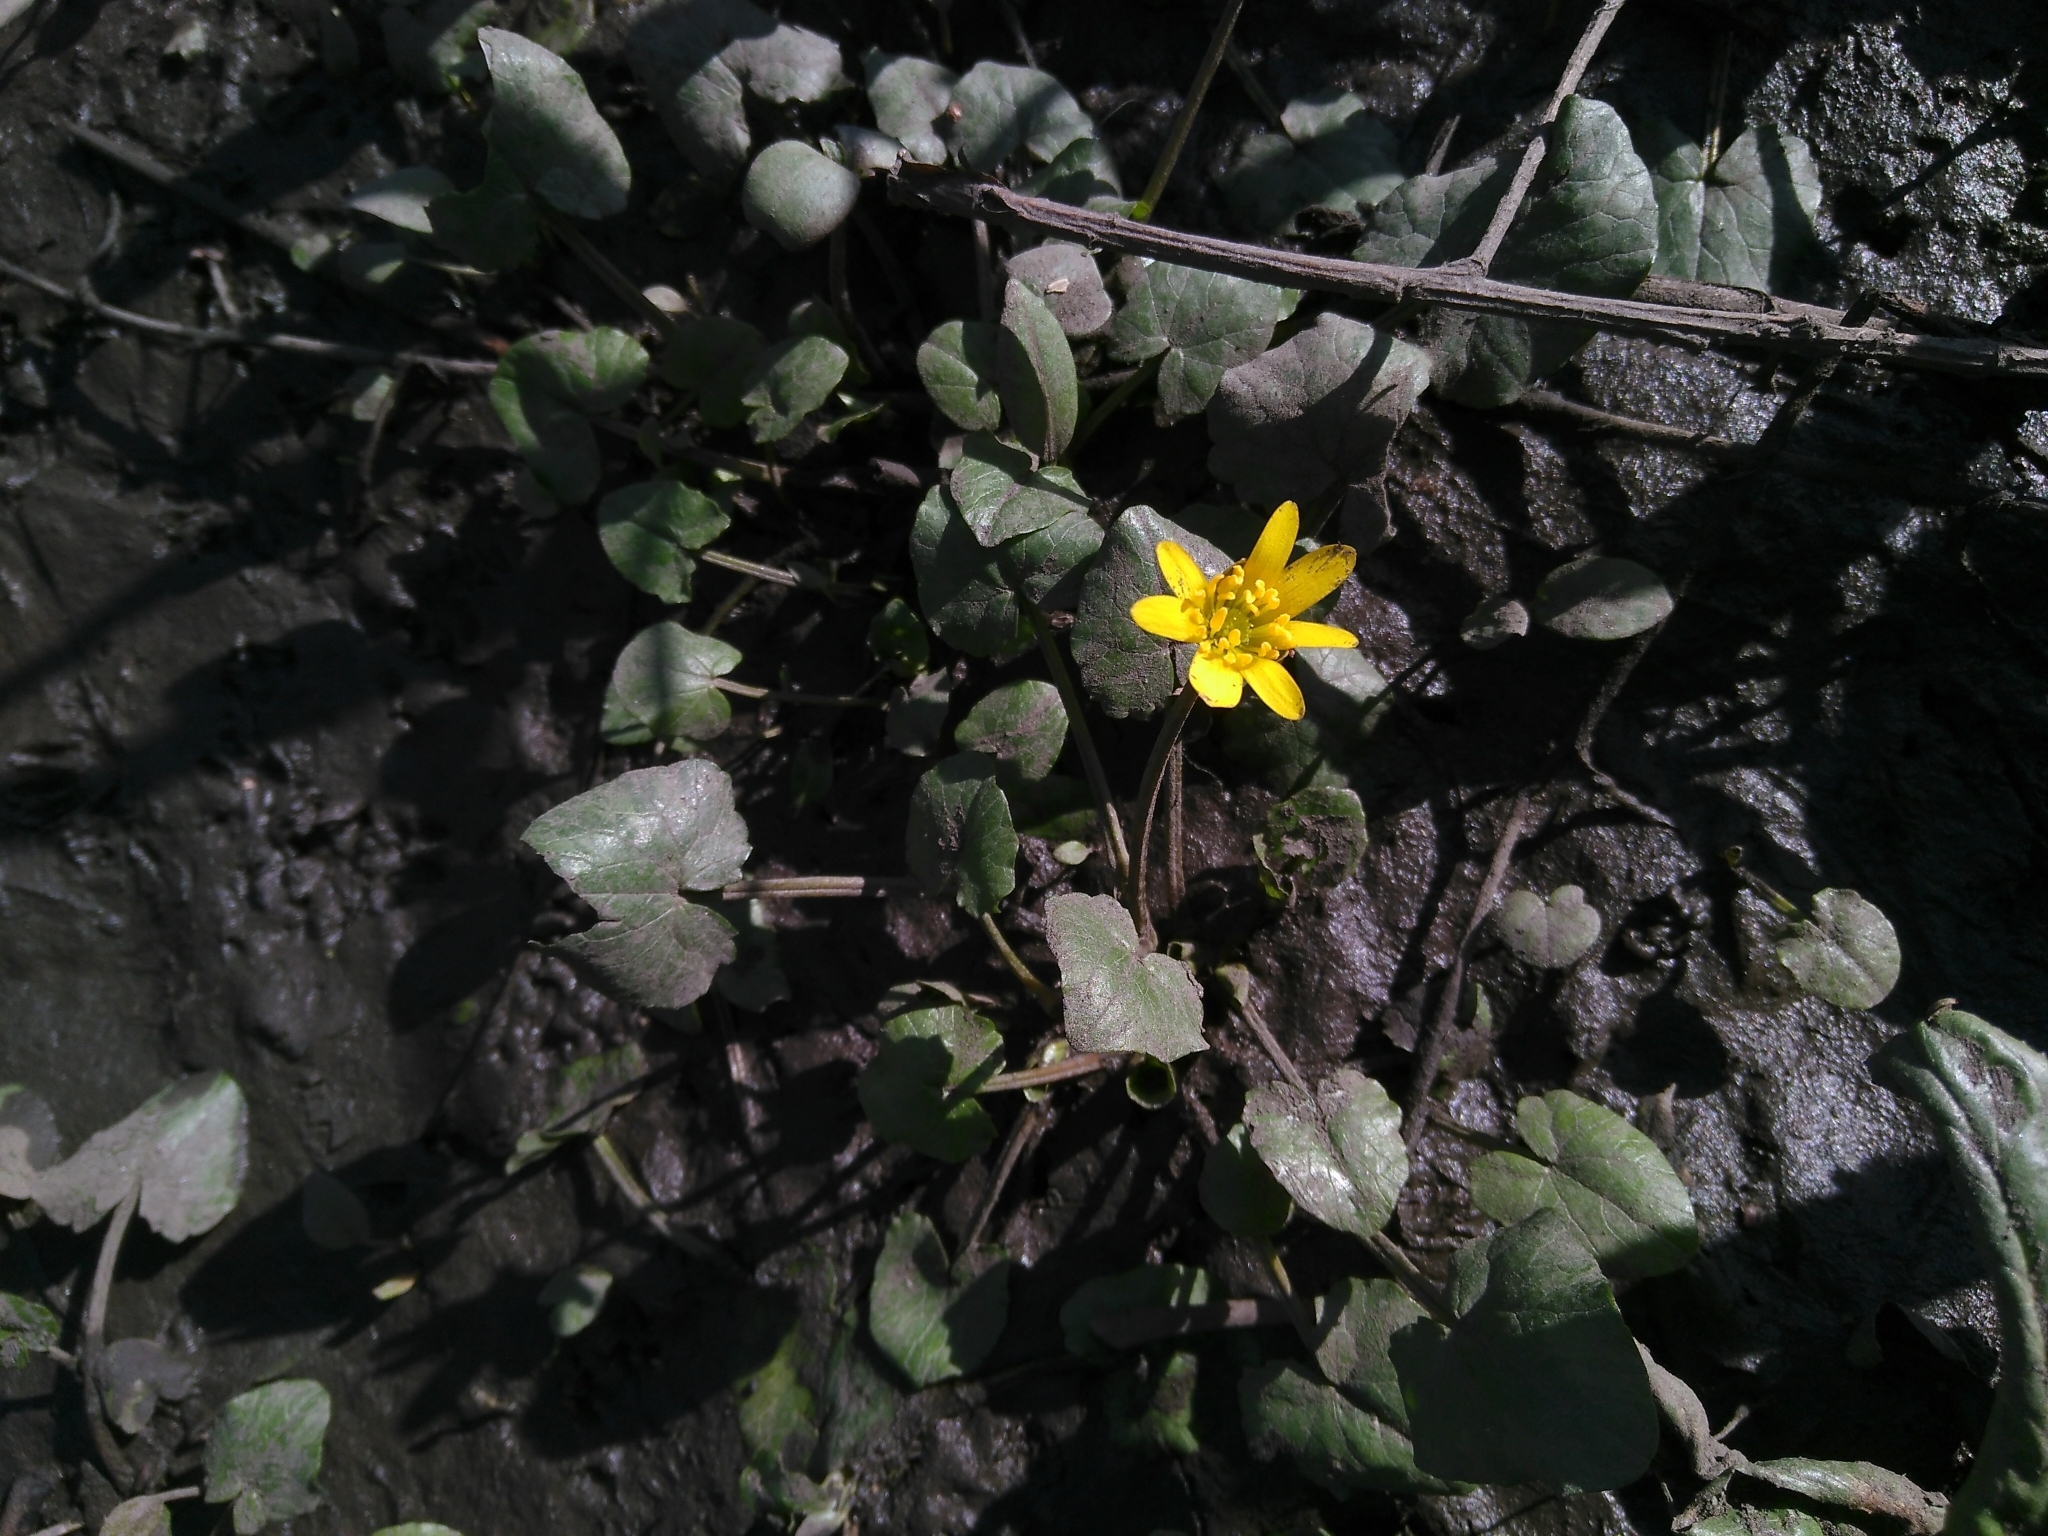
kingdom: Plantae
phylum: Tracheophyta
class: Magnoliopsida
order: Ranunculales
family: Ranunculaceae
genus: Ficaria
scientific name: Ficaria verna
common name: Lesser celandine
